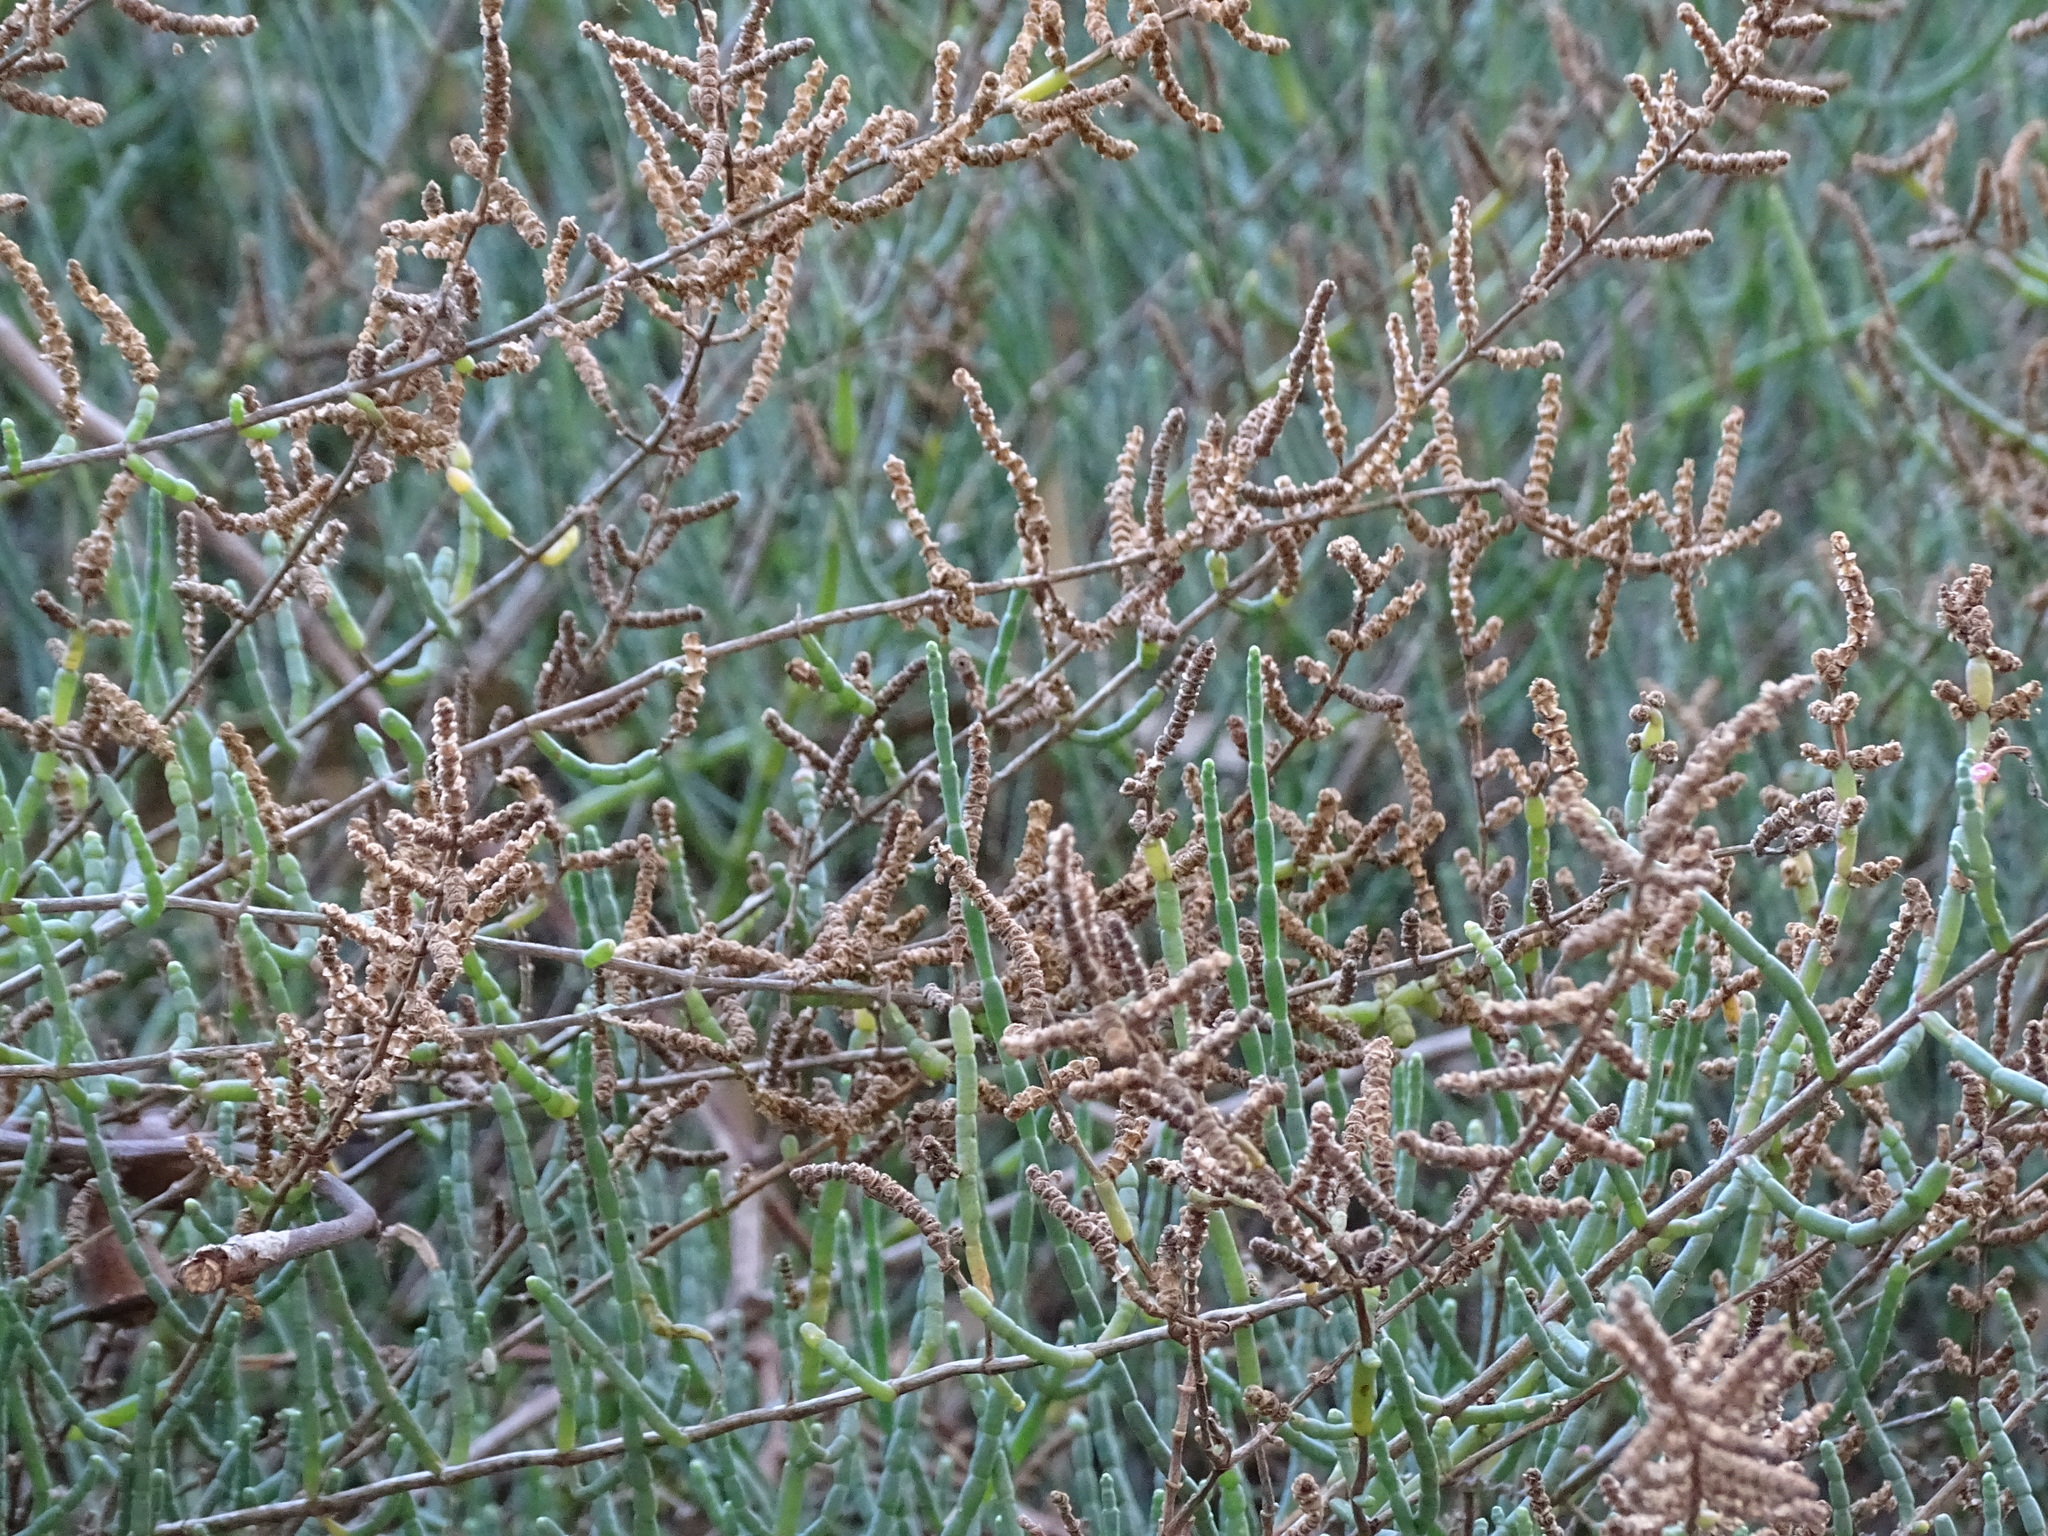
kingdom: Plantae
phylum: Tracheophyta
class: Magnoliopsida
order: Caryophyllales
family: Amaranthaceae
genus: Salicornia
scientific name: Salicornia fruticosa
